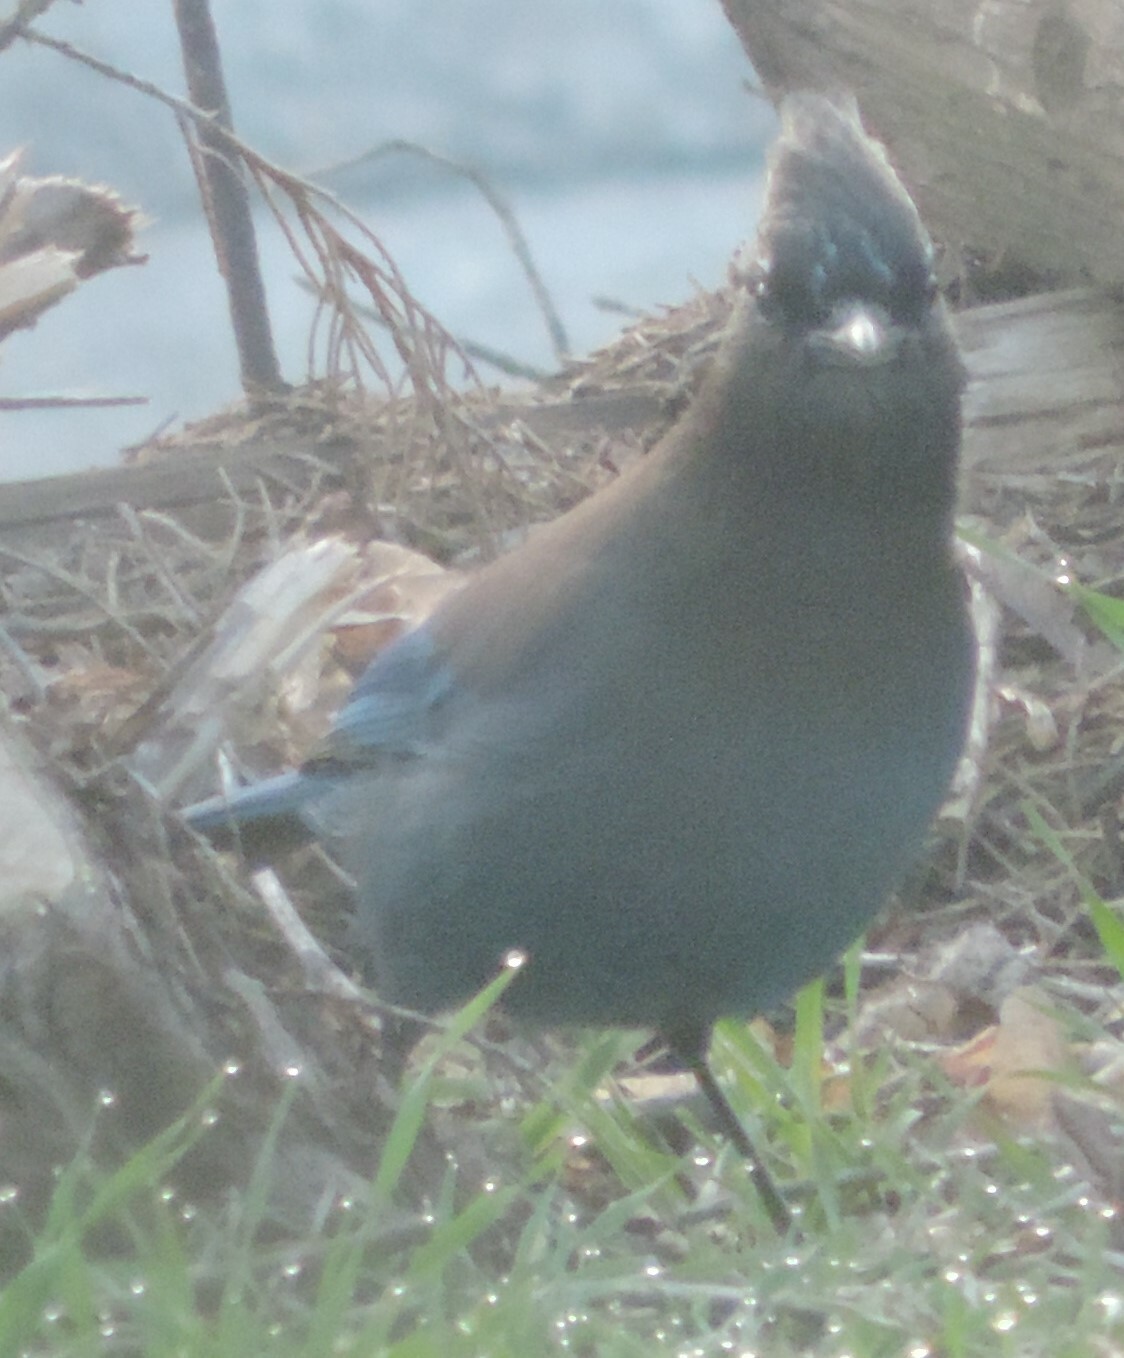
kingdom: Animalia
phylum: Chordata
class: Aves
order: Passeriformes
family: Corvidae
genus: Cyanocitta
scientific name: Cyanocitta stelleri
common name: Steller's jay
